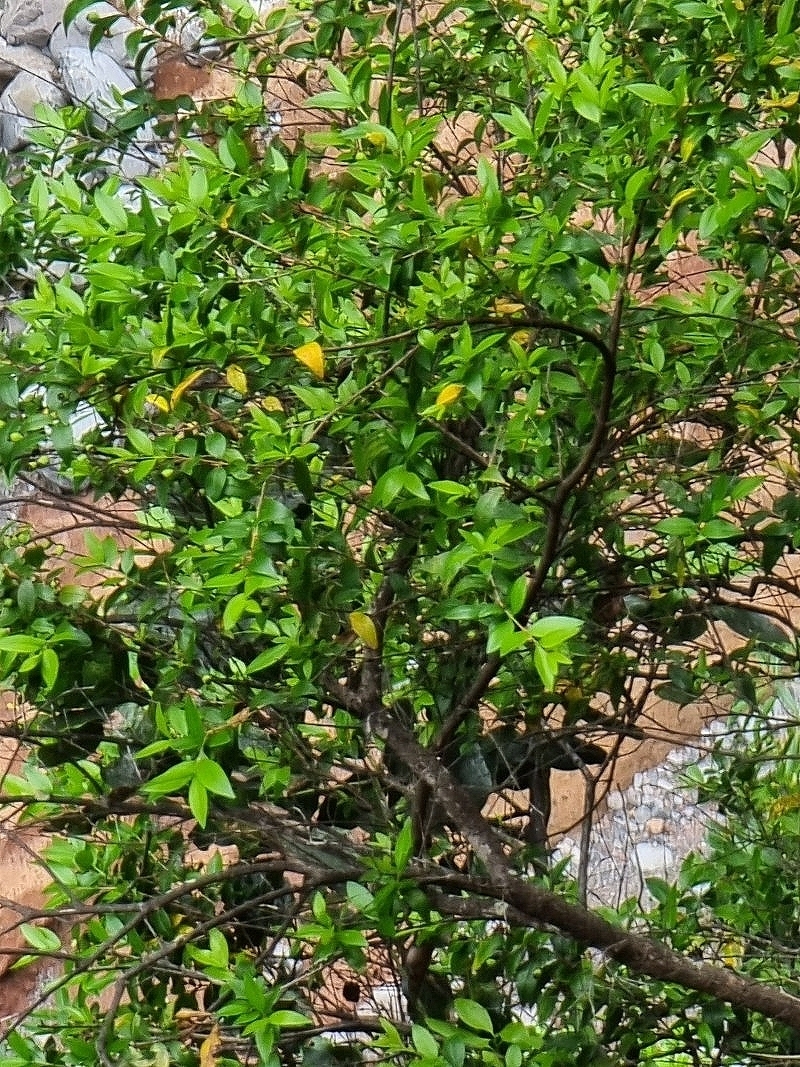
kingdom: Plantae
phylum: Tracheophyta
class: Magnoliopsida
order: Myrtales
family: Myrtaceae
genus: Myrtus
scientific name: Myrtus communis
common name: Myrtle
